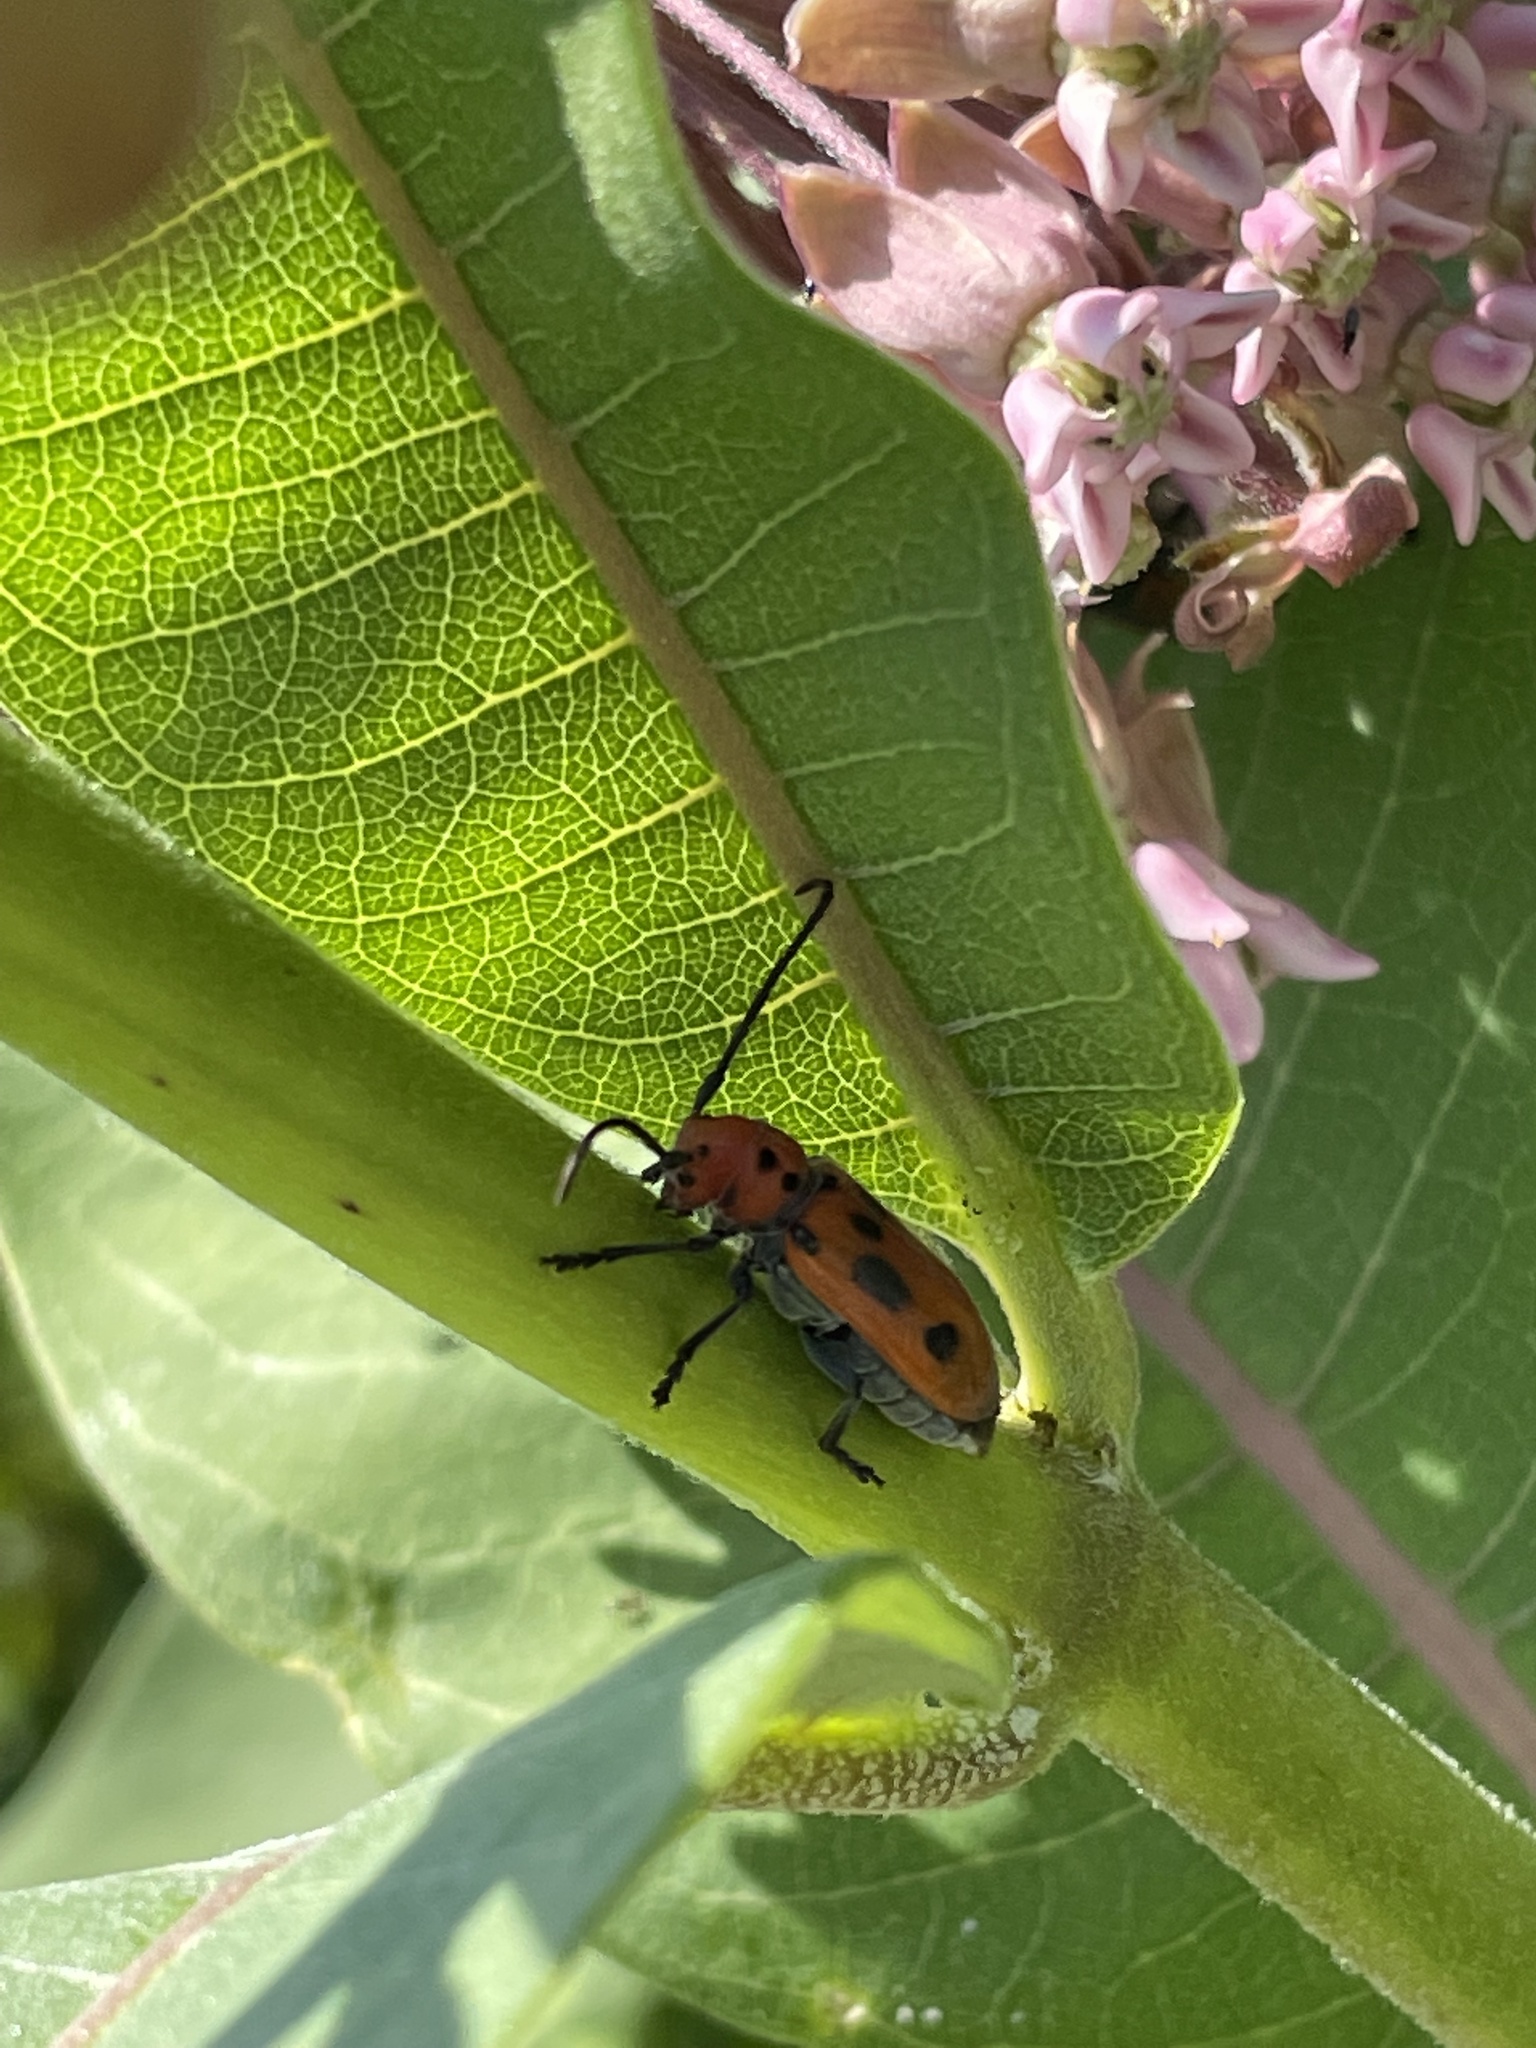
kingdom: Animalia
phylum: Arthropoda
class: Insecta
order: Coleoptera
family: Cerambycidae
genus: Tetraopes
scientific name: Tetraopes tetrophthalmus
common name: Red milkweed beetle
